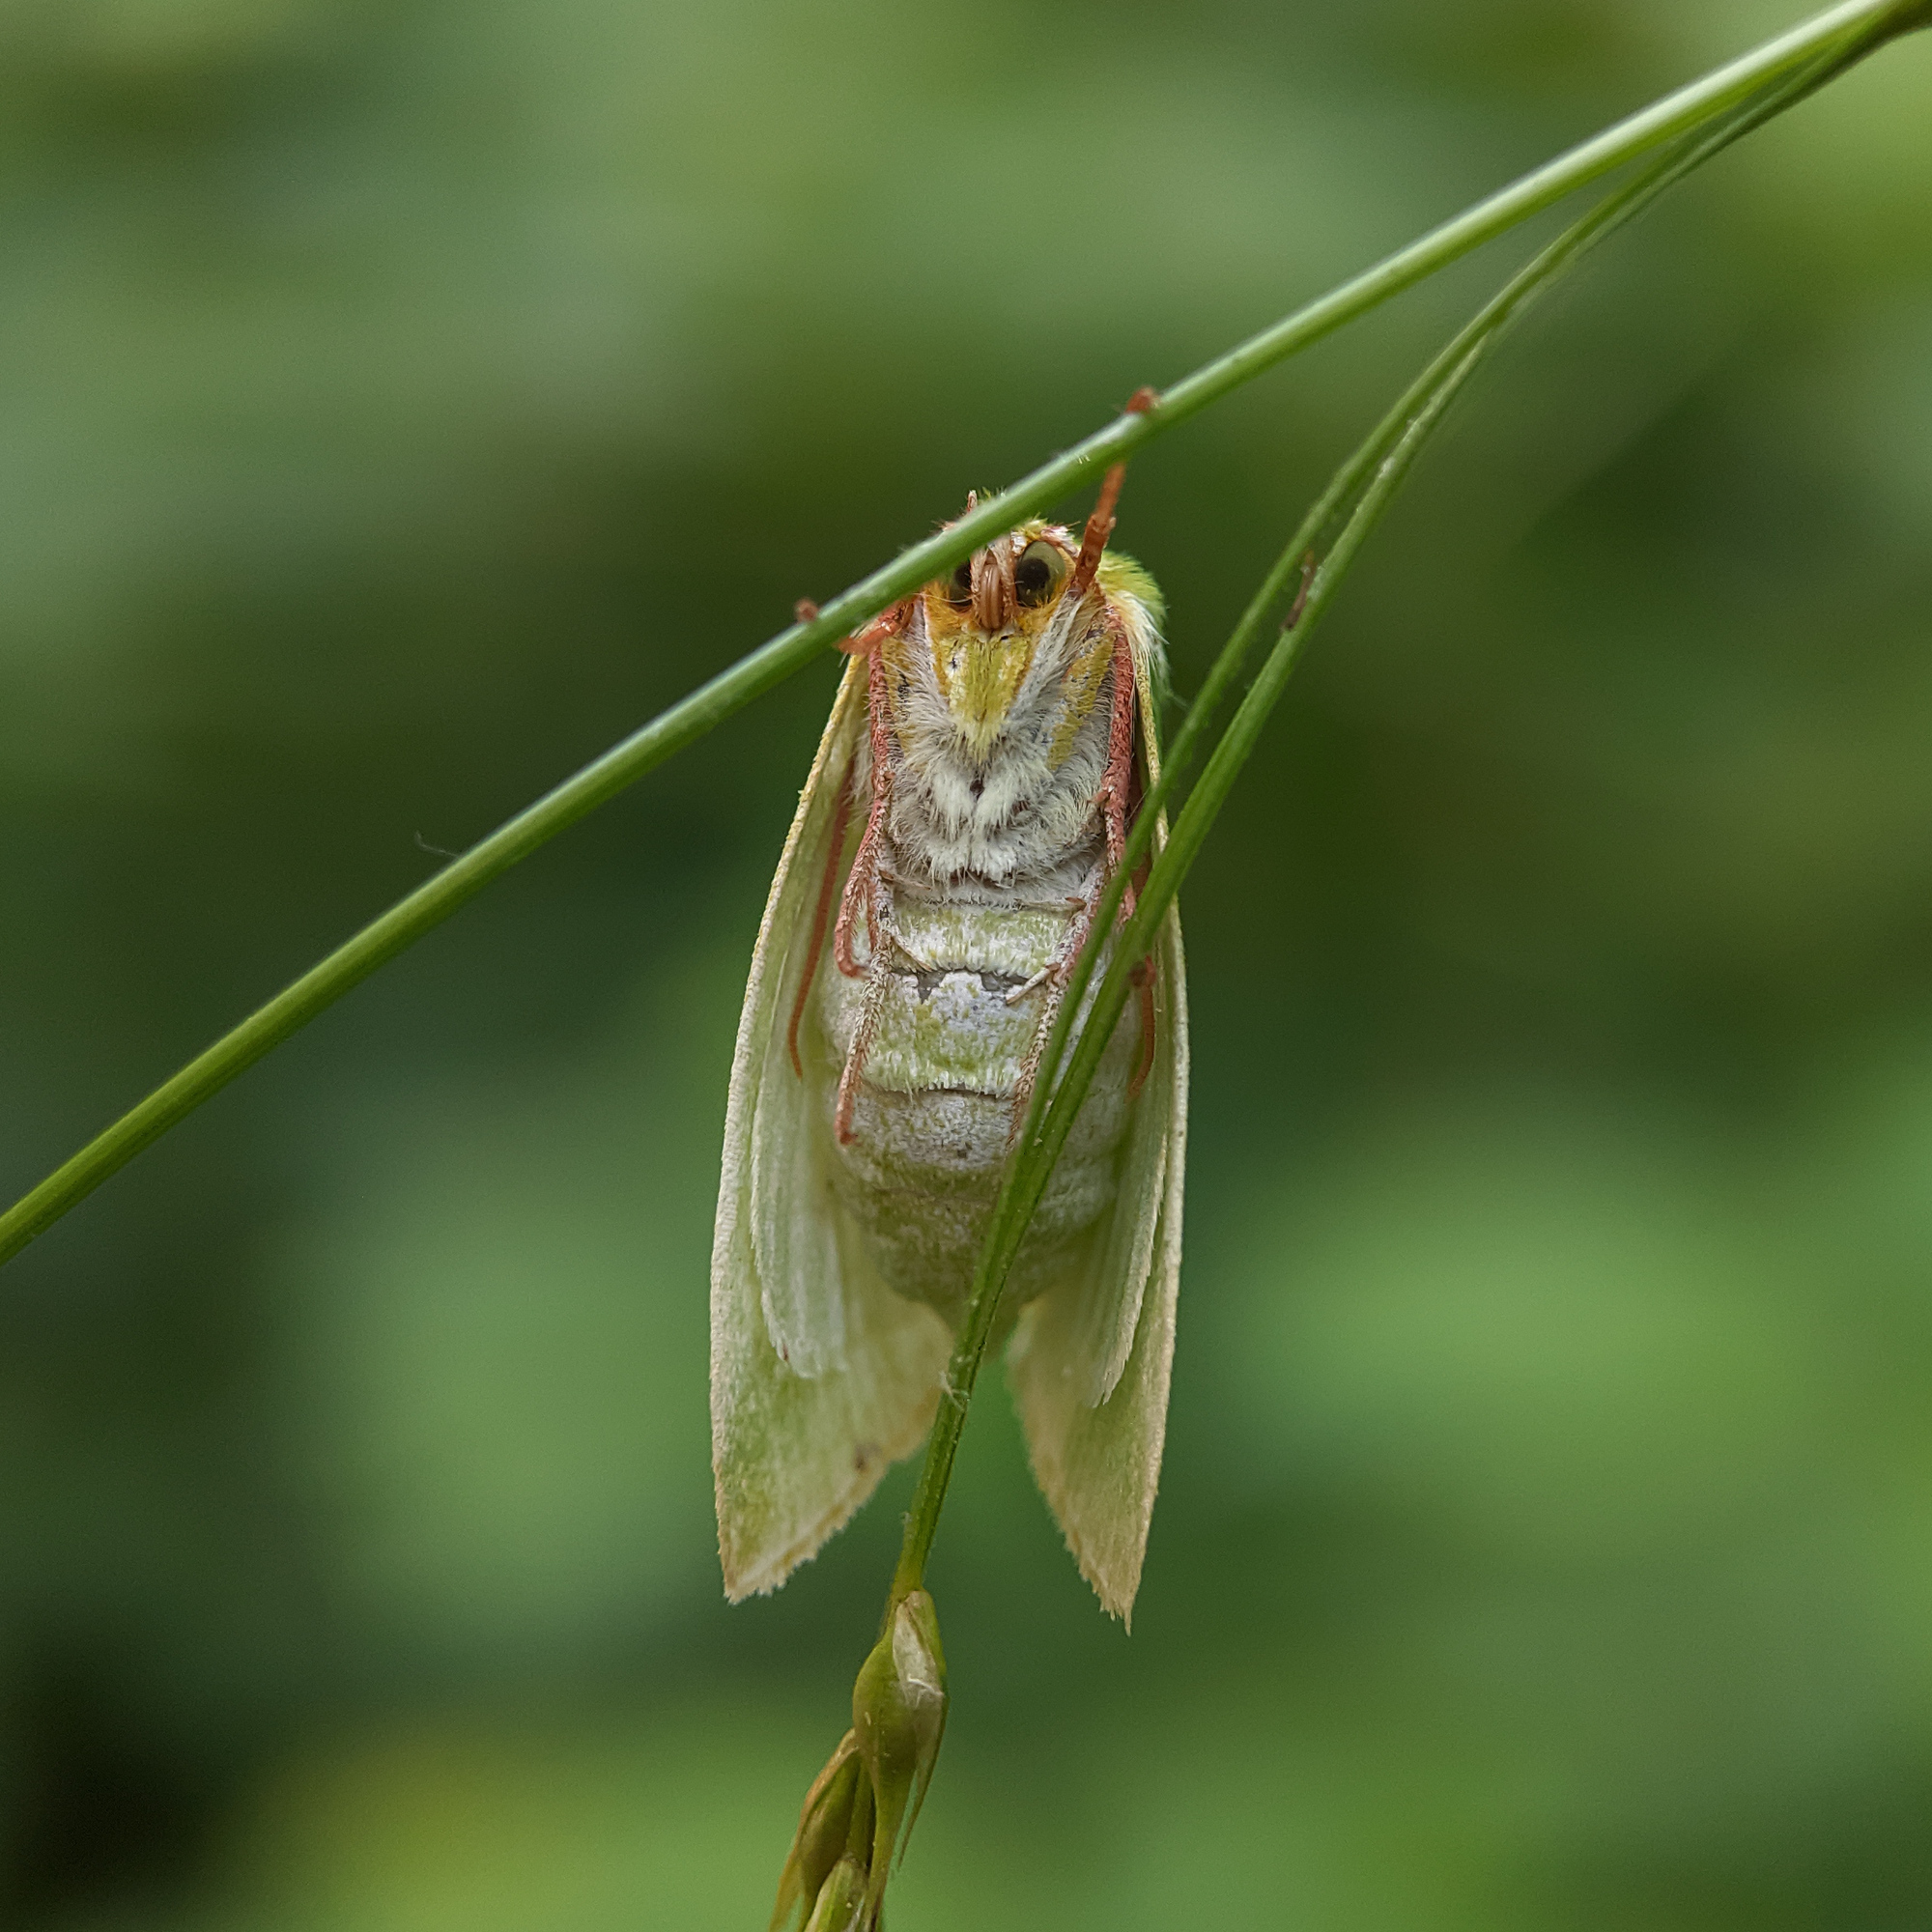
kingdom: Animalia
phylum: Arthropoda
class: Insecta
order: Lepidoptera
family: Nolidae
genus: Pseudoips
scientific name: Pseudoips prasinana
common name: Green silver-lines
